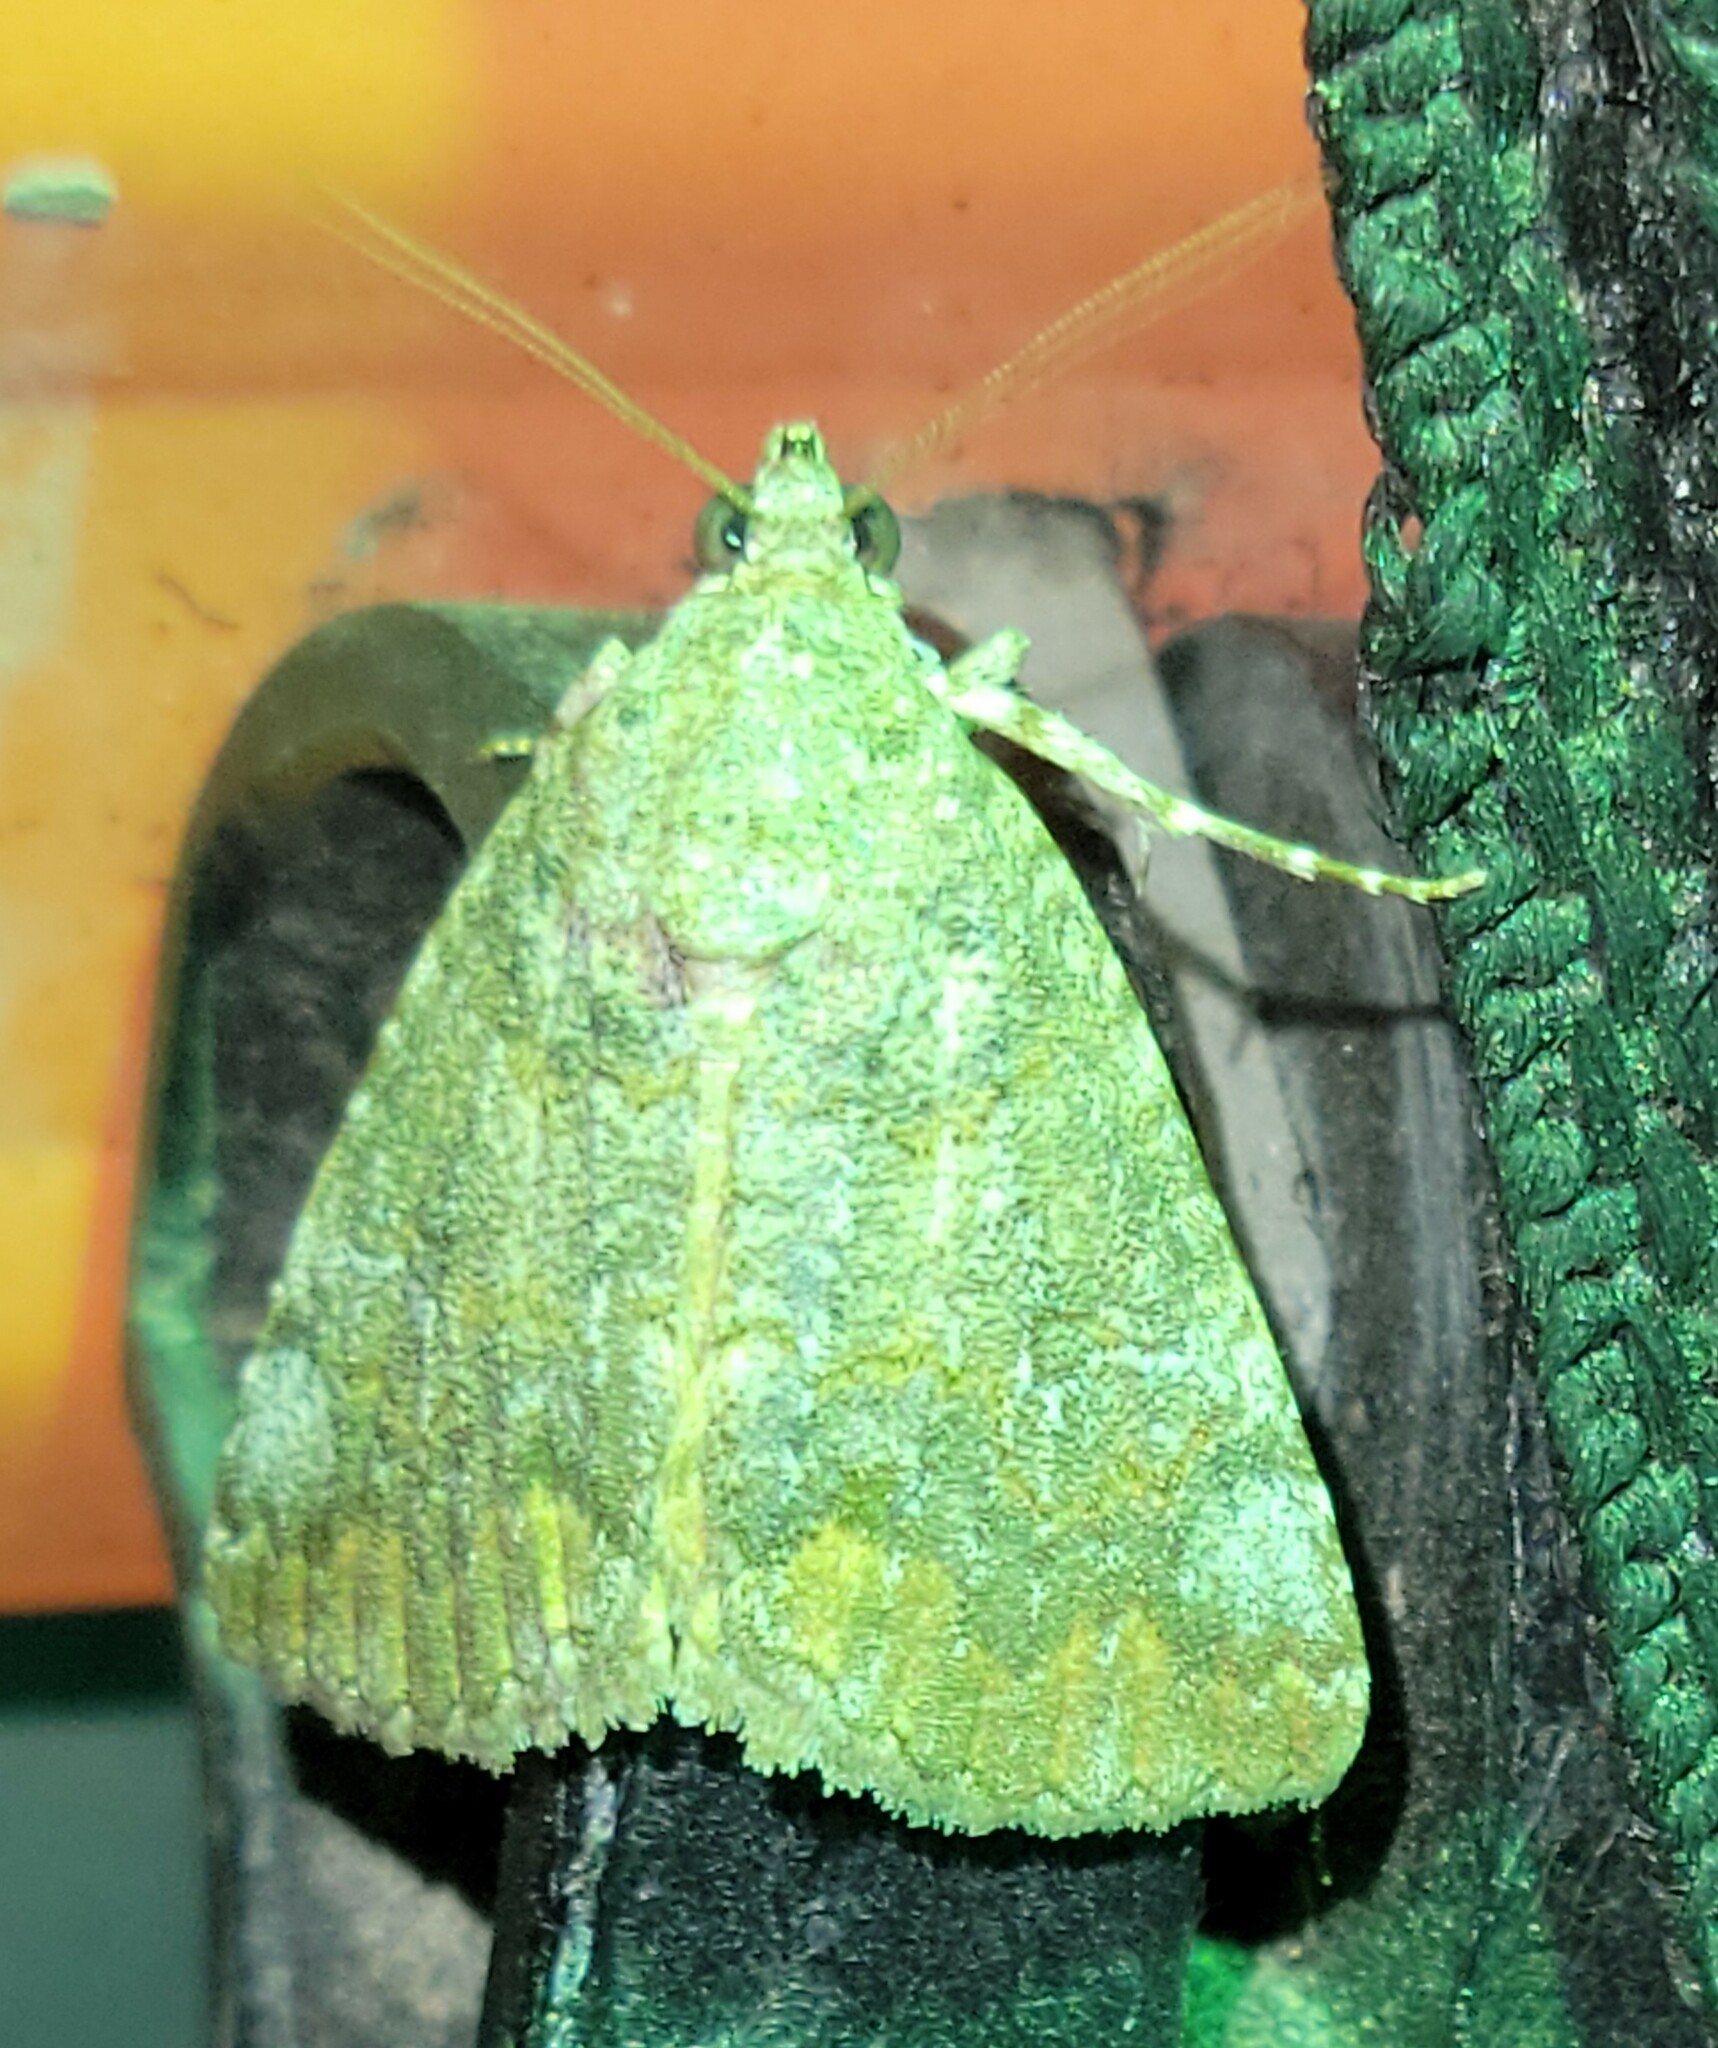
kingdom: Animalia
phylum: Arthropoda
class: Insecta
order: Lepidoptera
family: Erebidae
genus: Eubolina
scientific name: Eubolina impartialis
